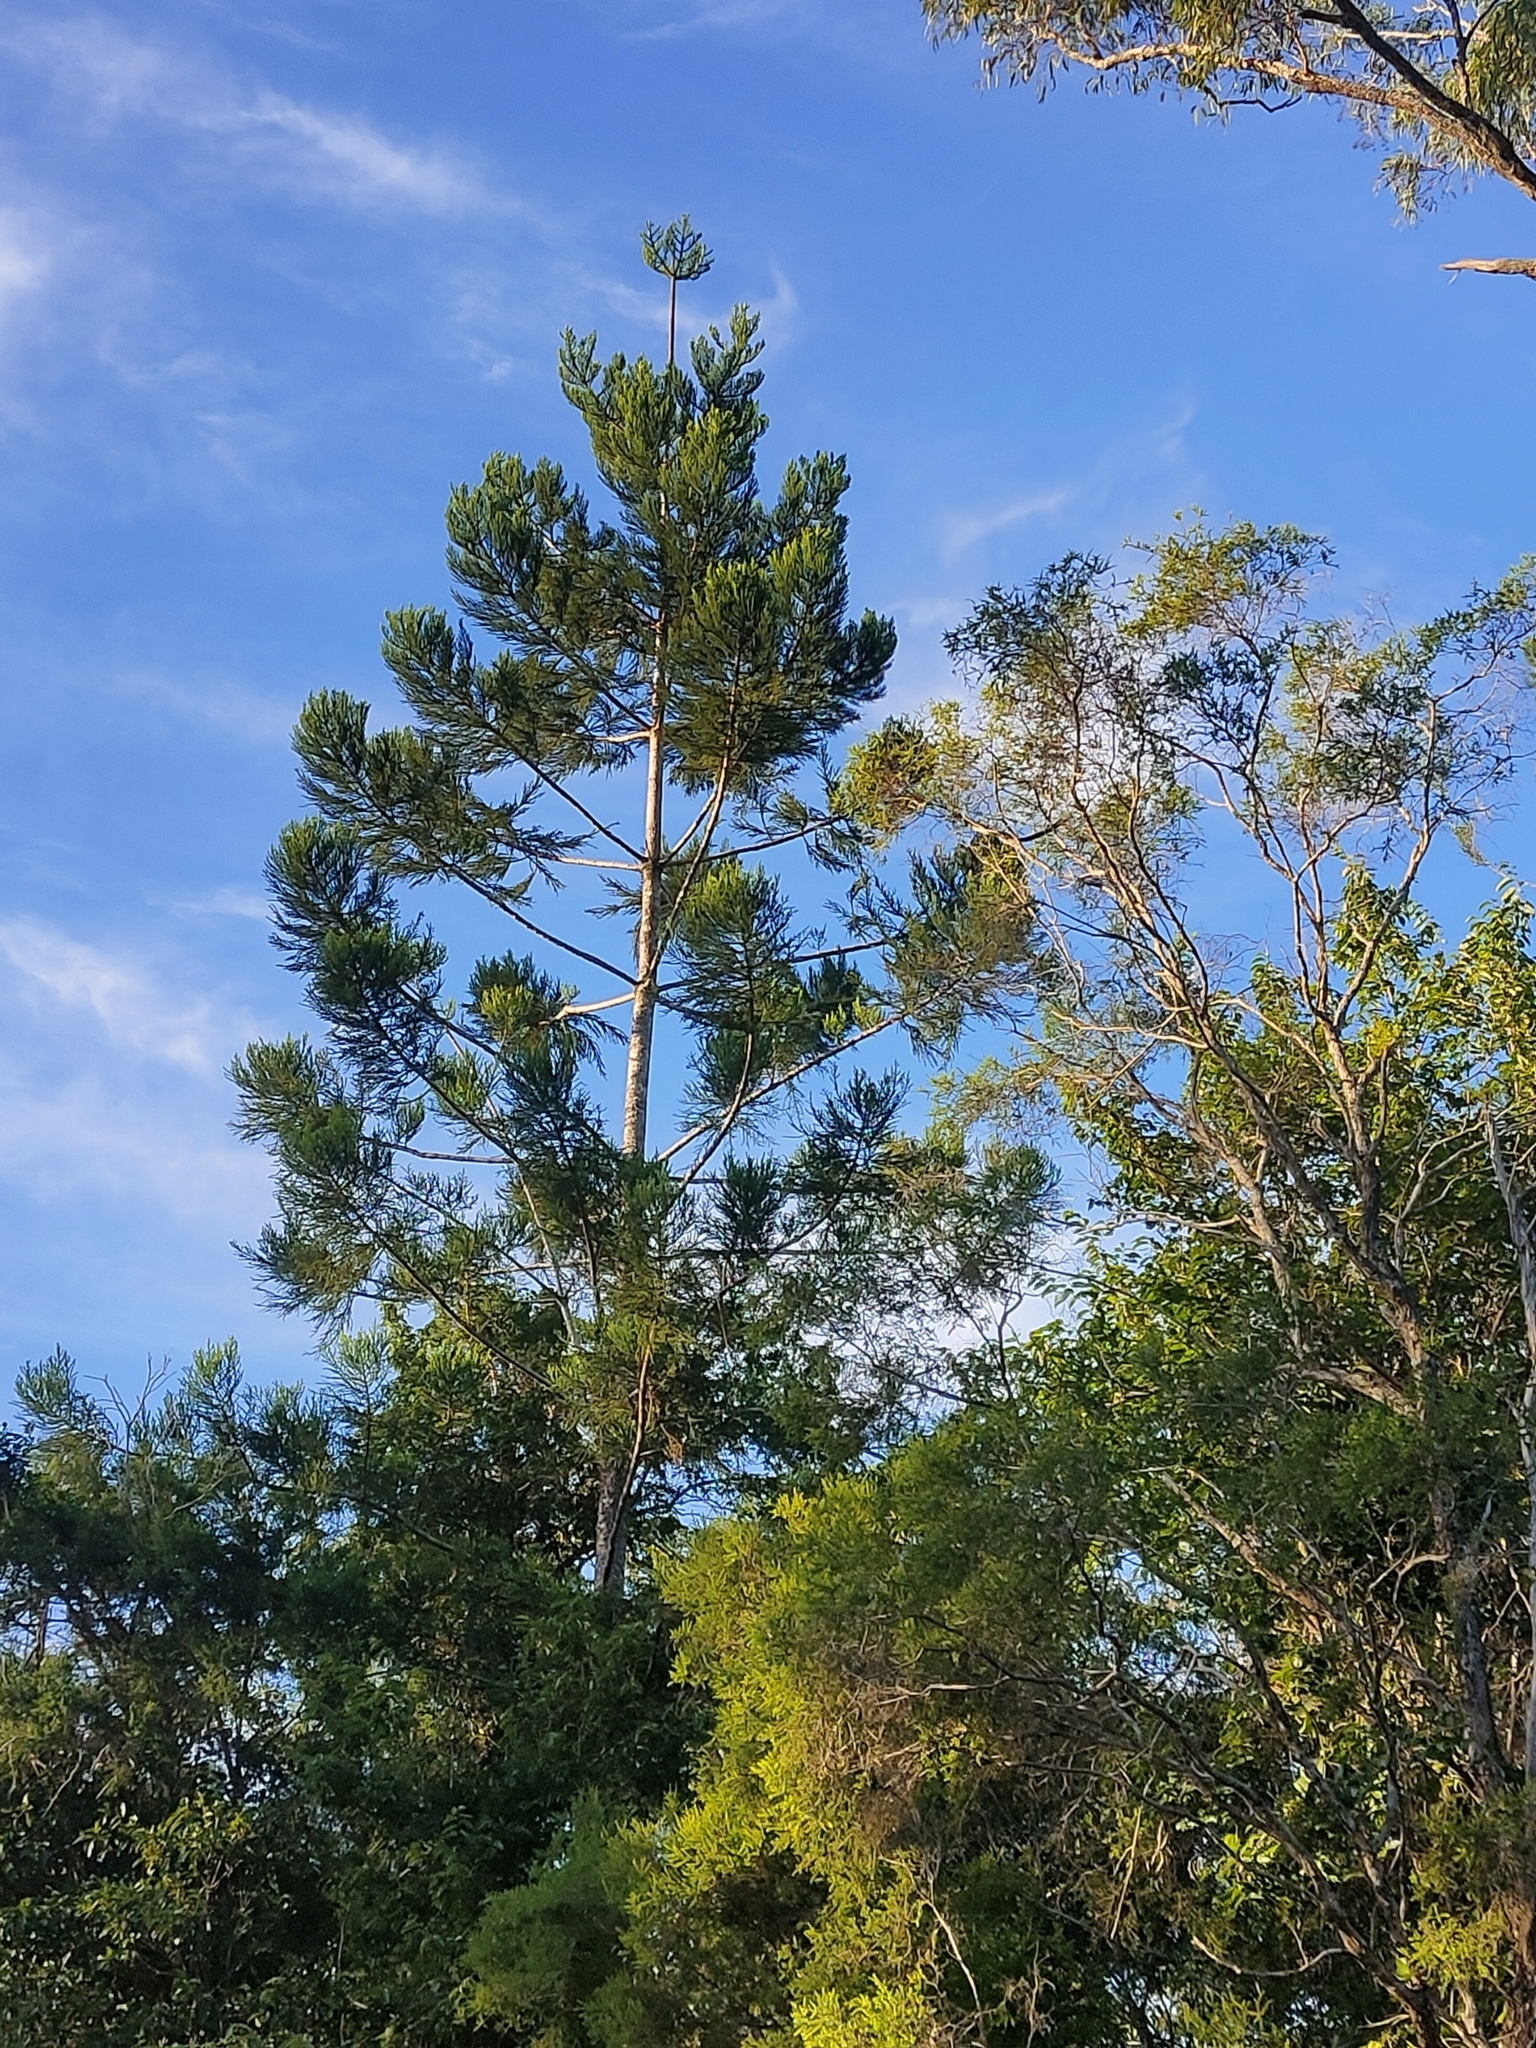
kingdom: Plantae
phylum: Tracheophyta
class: Pinopsida
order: Pinales
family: Araucariaceae
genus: Araucaria
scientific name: Araucaria cunninghamii
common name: Colonial pine
